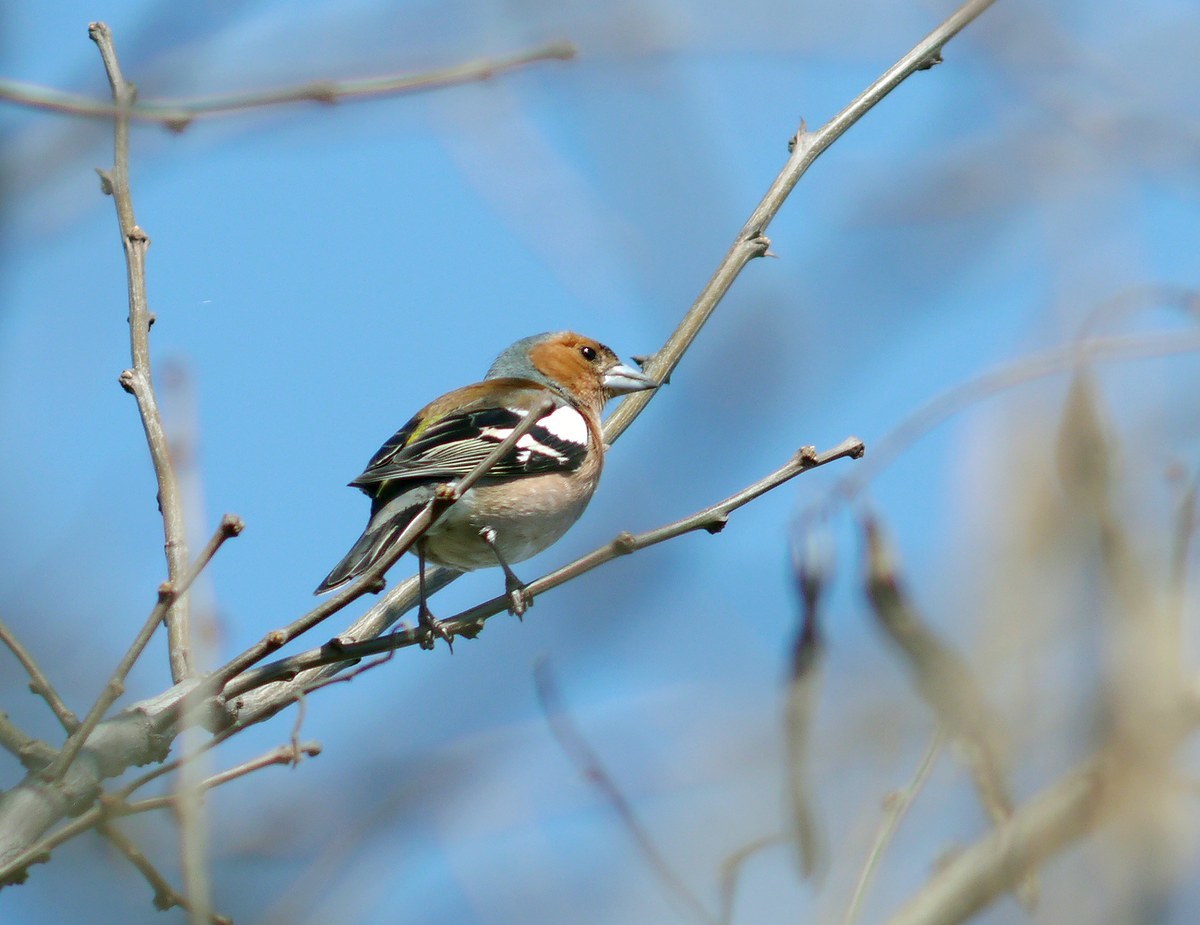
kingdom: Animalia
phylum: Chordata
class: Aves
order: Passeriformes
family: Fringillidae
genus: Fringilla
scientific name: Fringilla coelebs
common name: Common chaffinch
